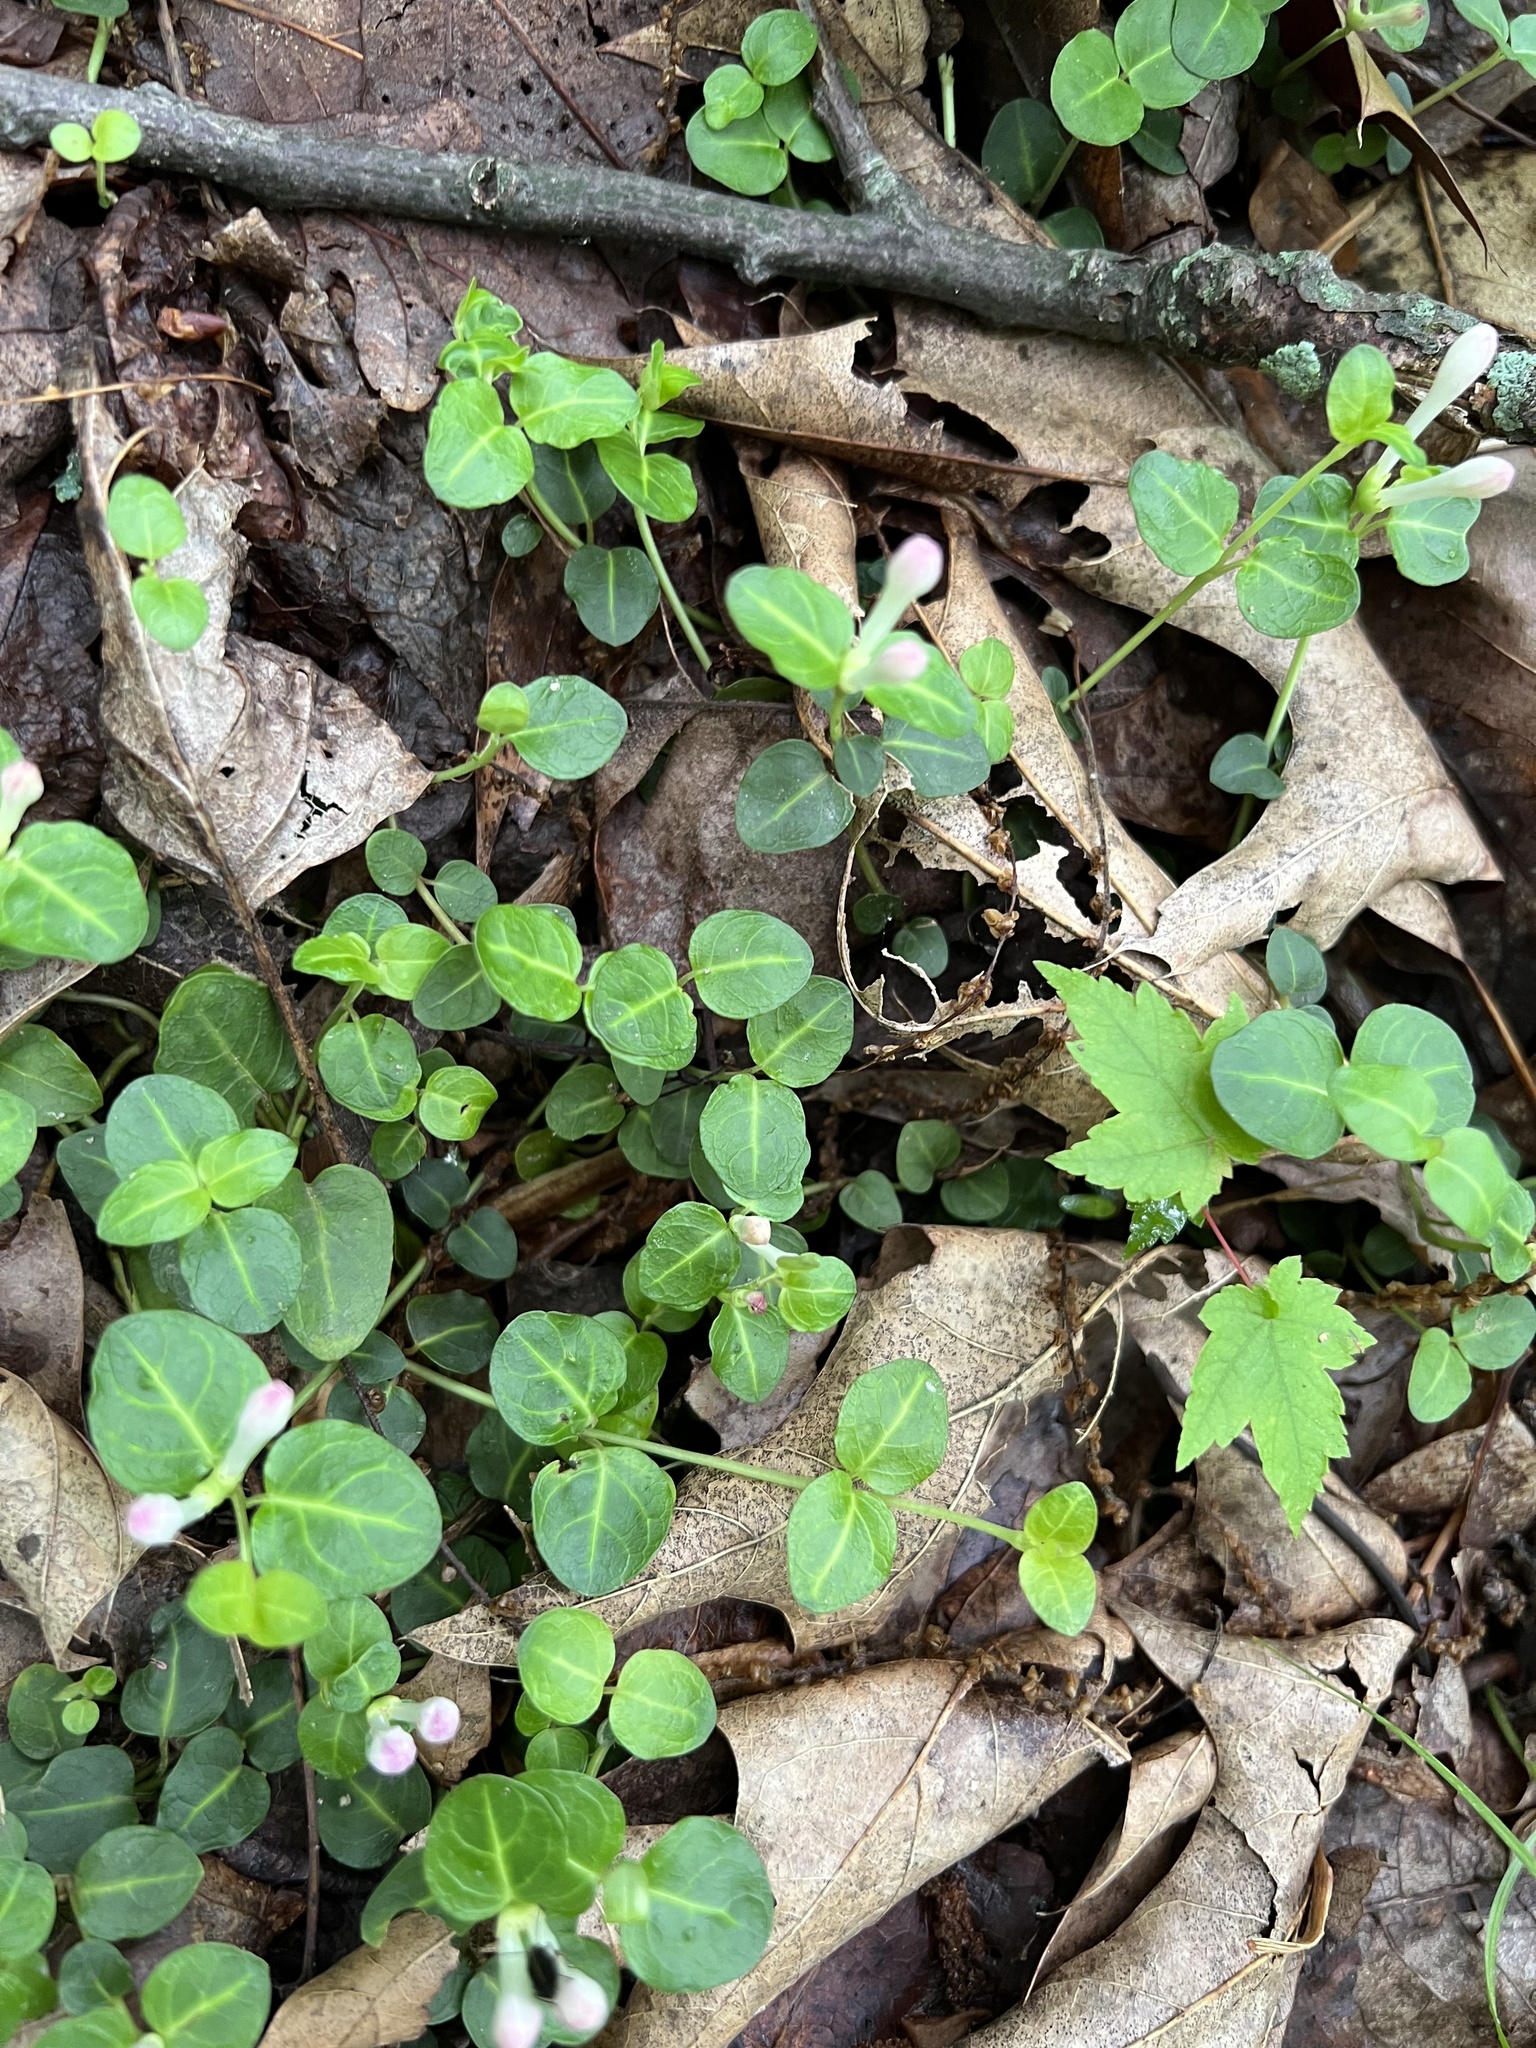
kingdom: Plantae
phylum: Tracheophyta
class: Magnoliopsida
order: Gentianales
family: Rubiaceae
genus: Mitchella
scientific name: Mitchella repens
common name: Partridge-berry
